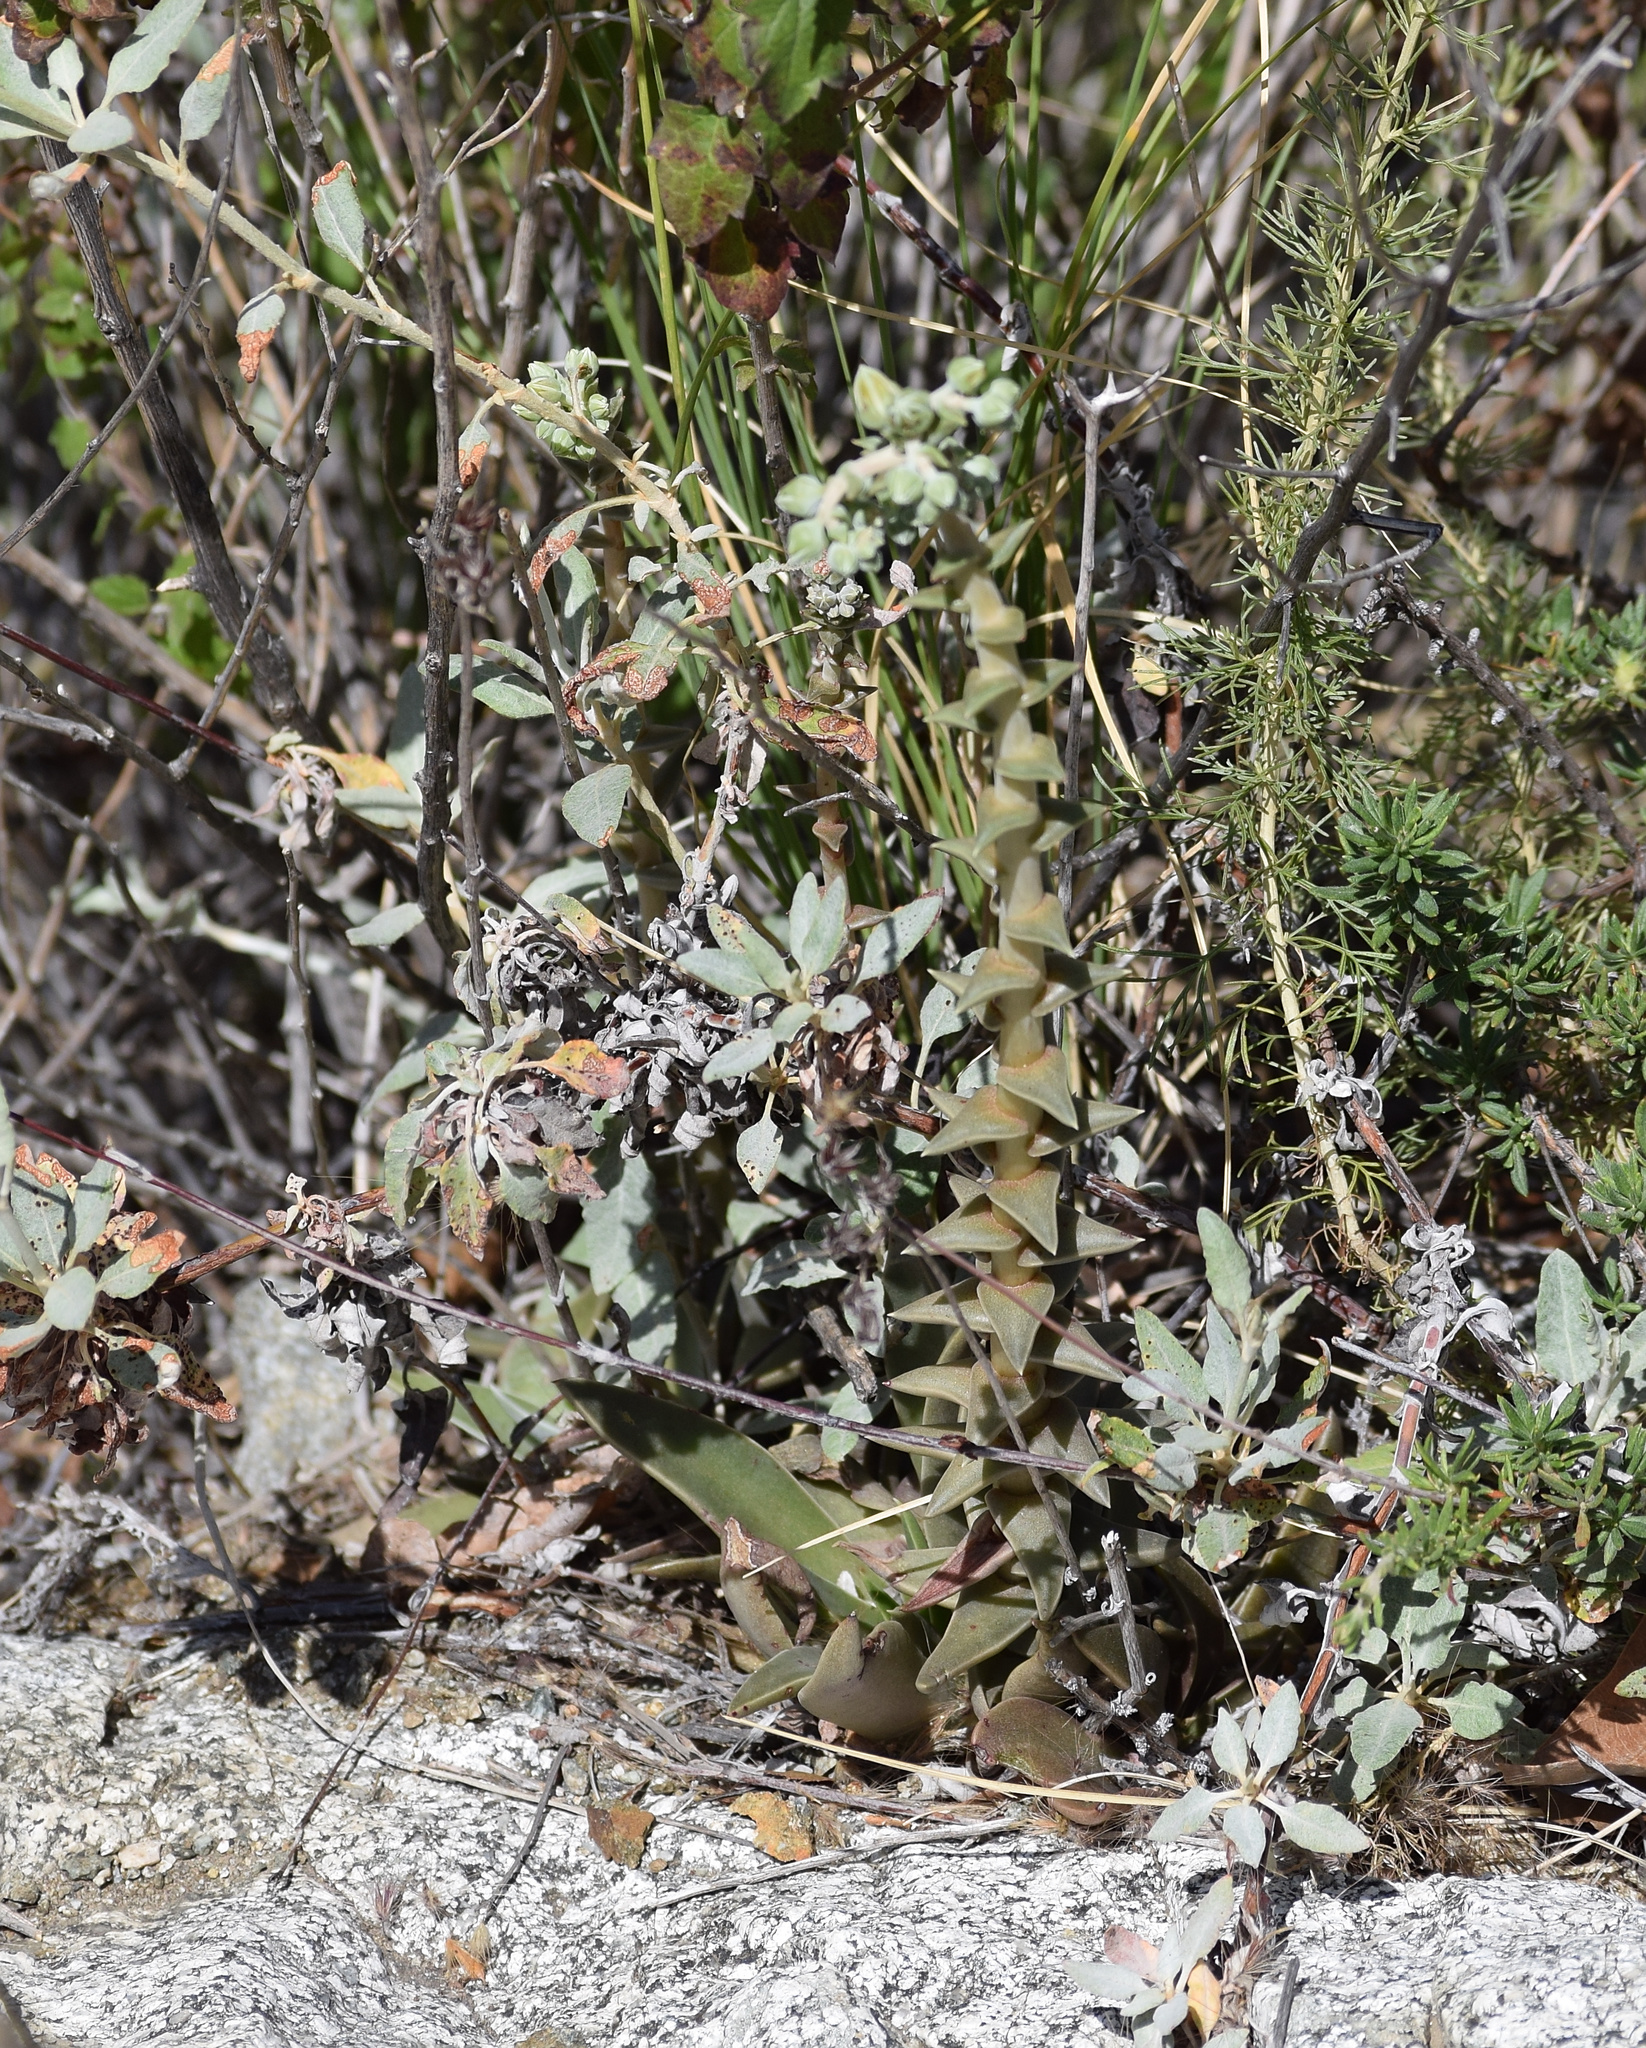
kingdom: Plantae
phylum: Tracheophyta
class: Magnoliopsida
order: Saxifragales
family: Crassulaceae
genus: Dudleya
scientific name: Dudleya lanceolata
